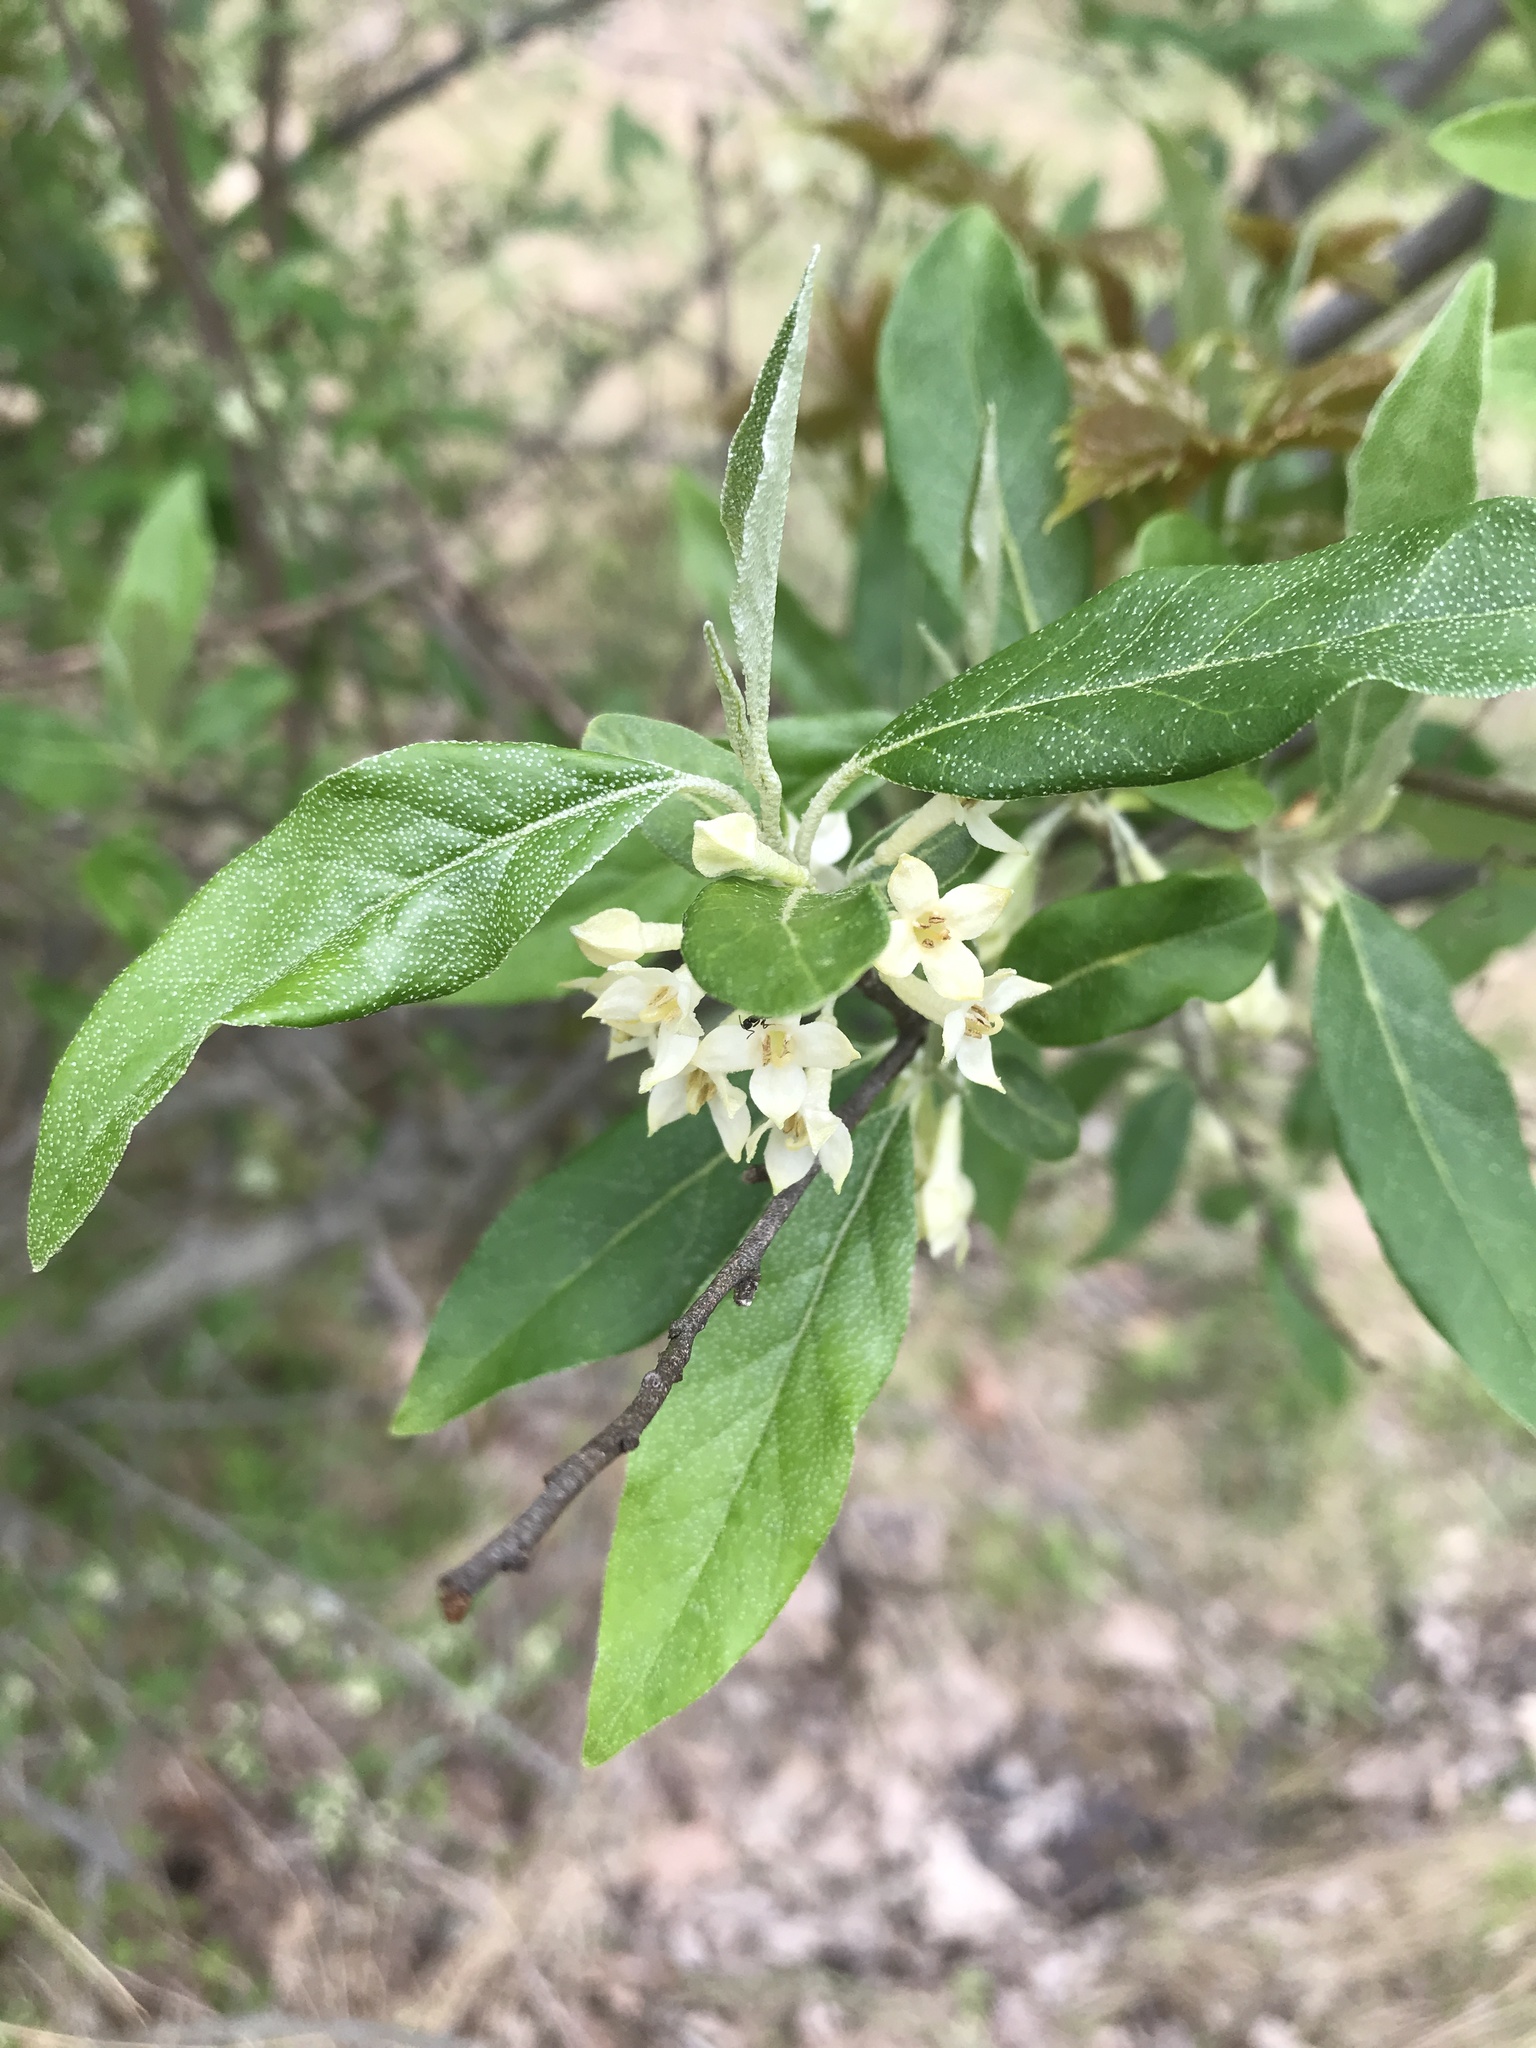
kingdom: Plantae
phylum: Tracheophyta
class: Magnoliopsida
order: Rosales
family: Elaeagnaceae
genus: Elaeagnus
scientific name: Elaeagnus umbellata
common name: Autumn olive
